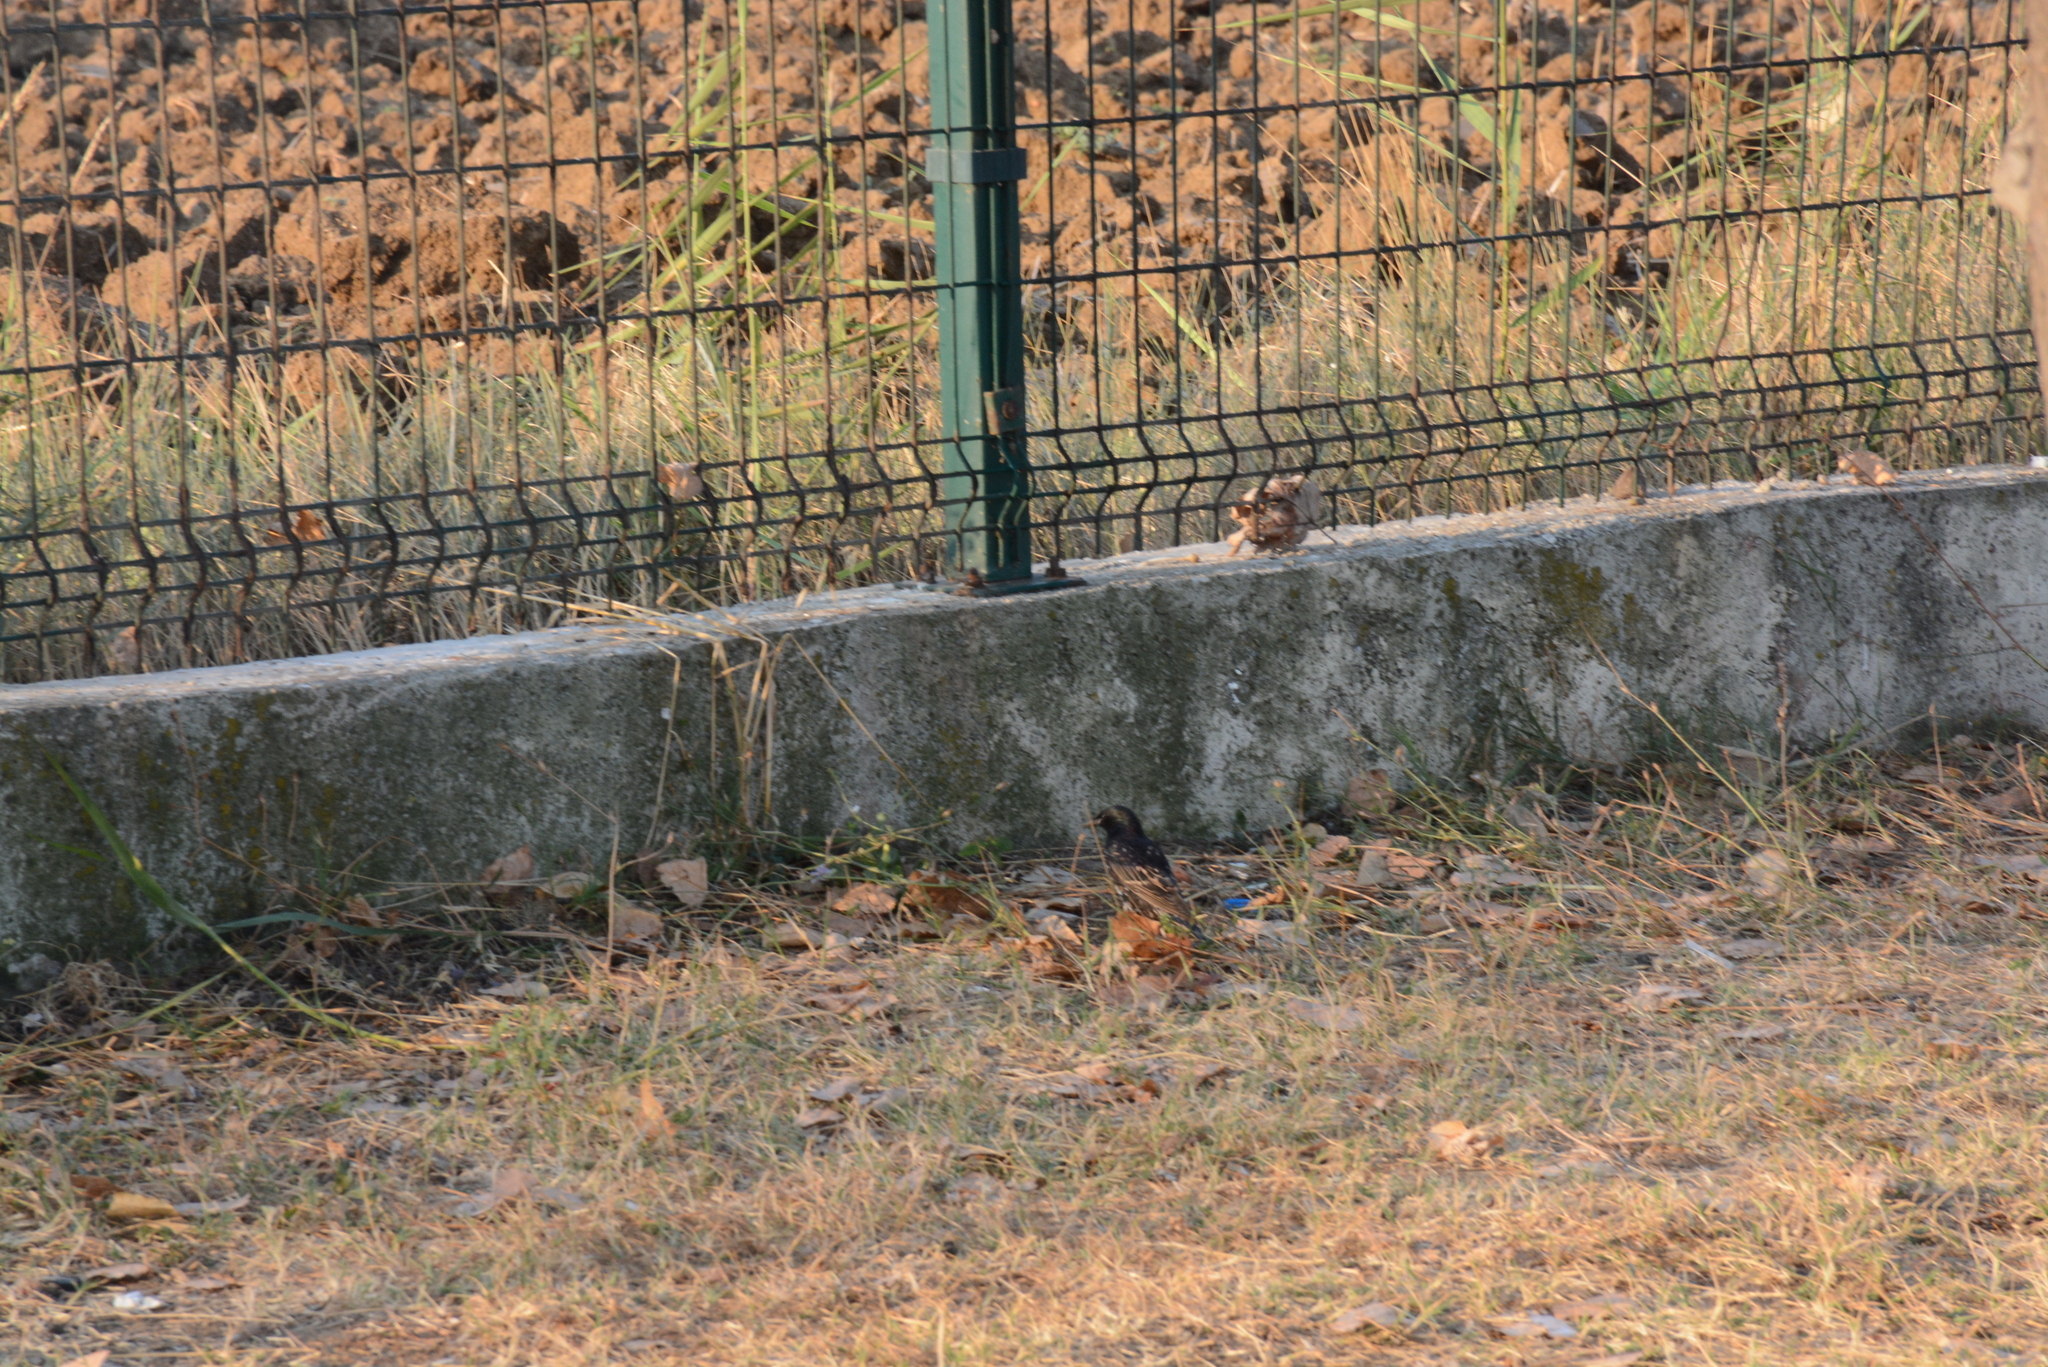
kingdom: Animalia
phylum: Chordata
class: Aves
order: Passeriformes
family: Sturnidae
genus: Sturnus
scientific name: Sturnus vulgaris
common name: Common starling
